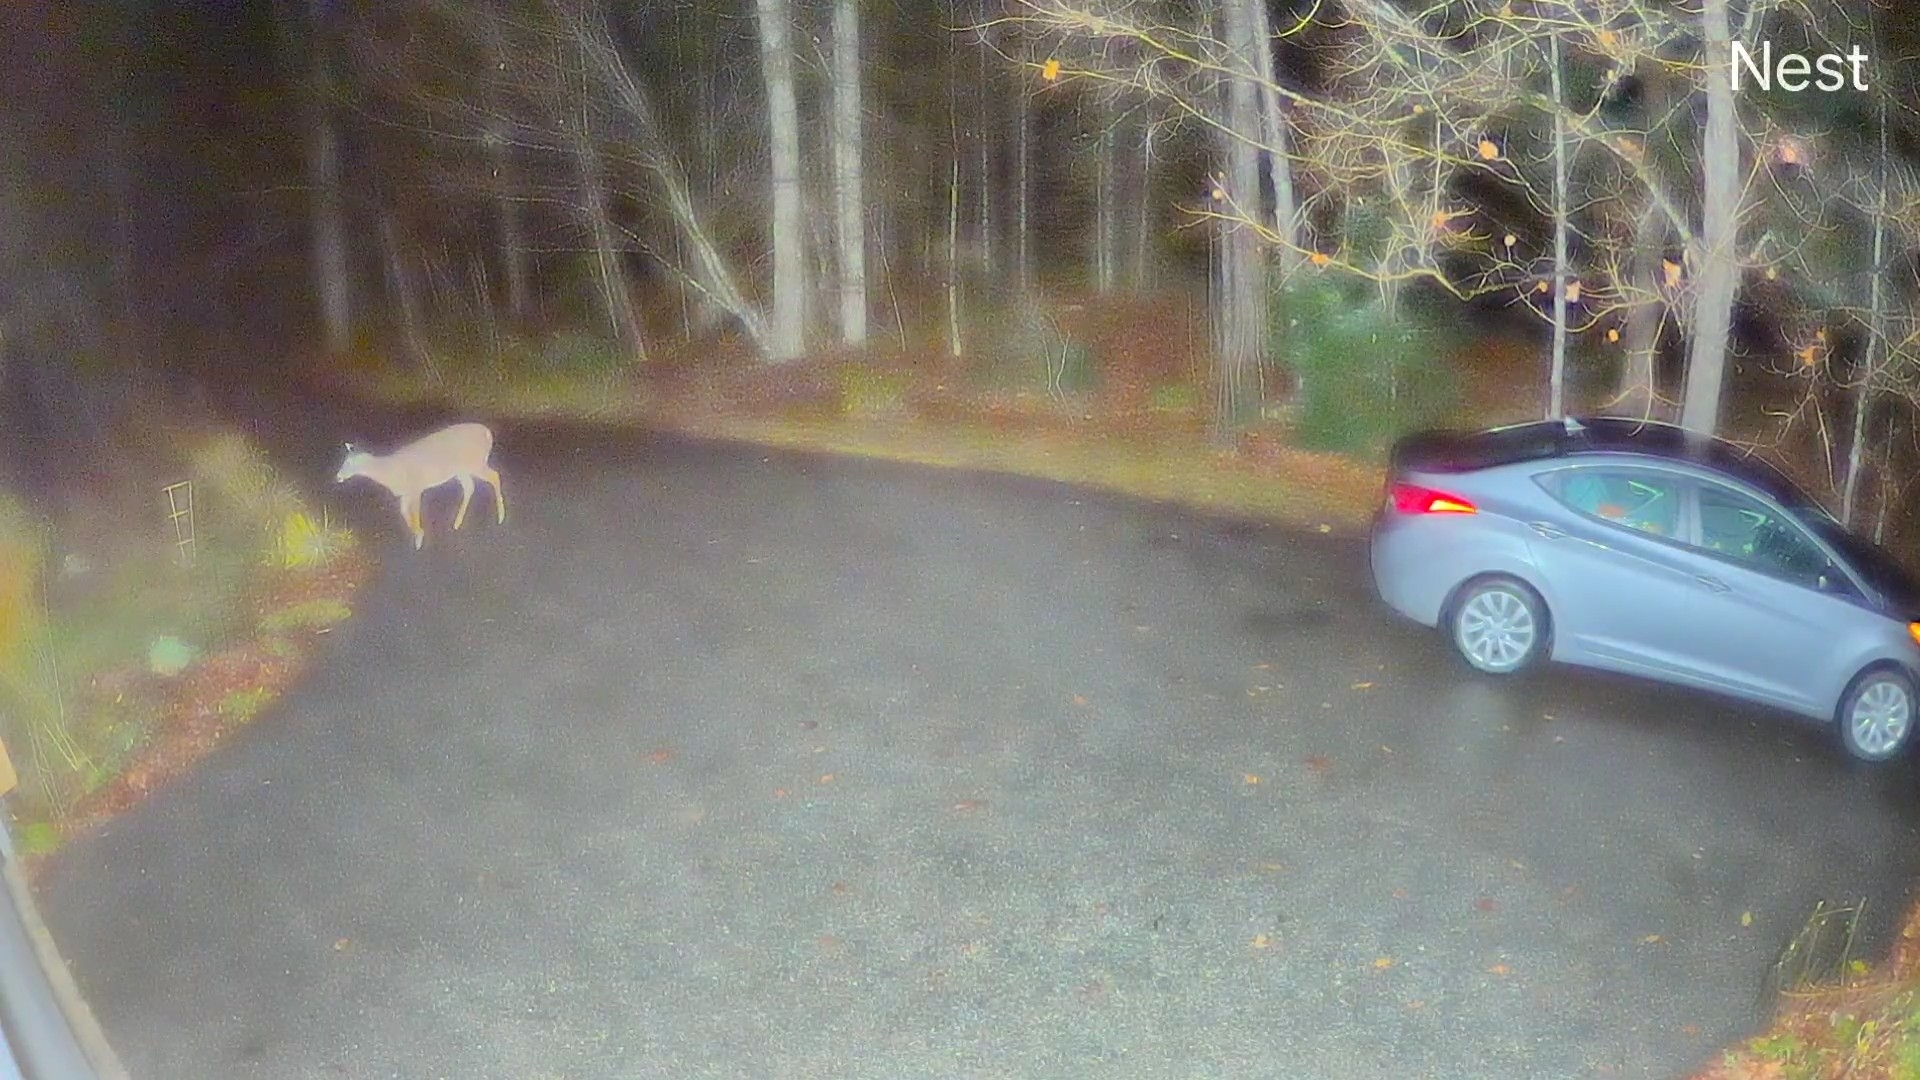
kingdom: Animalia
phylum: Chordata
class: Mammalia
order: Artiodactyla
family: Cervidae
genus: Odocoileus
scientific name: Odocoileus virginianus
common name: White-tailed deer
